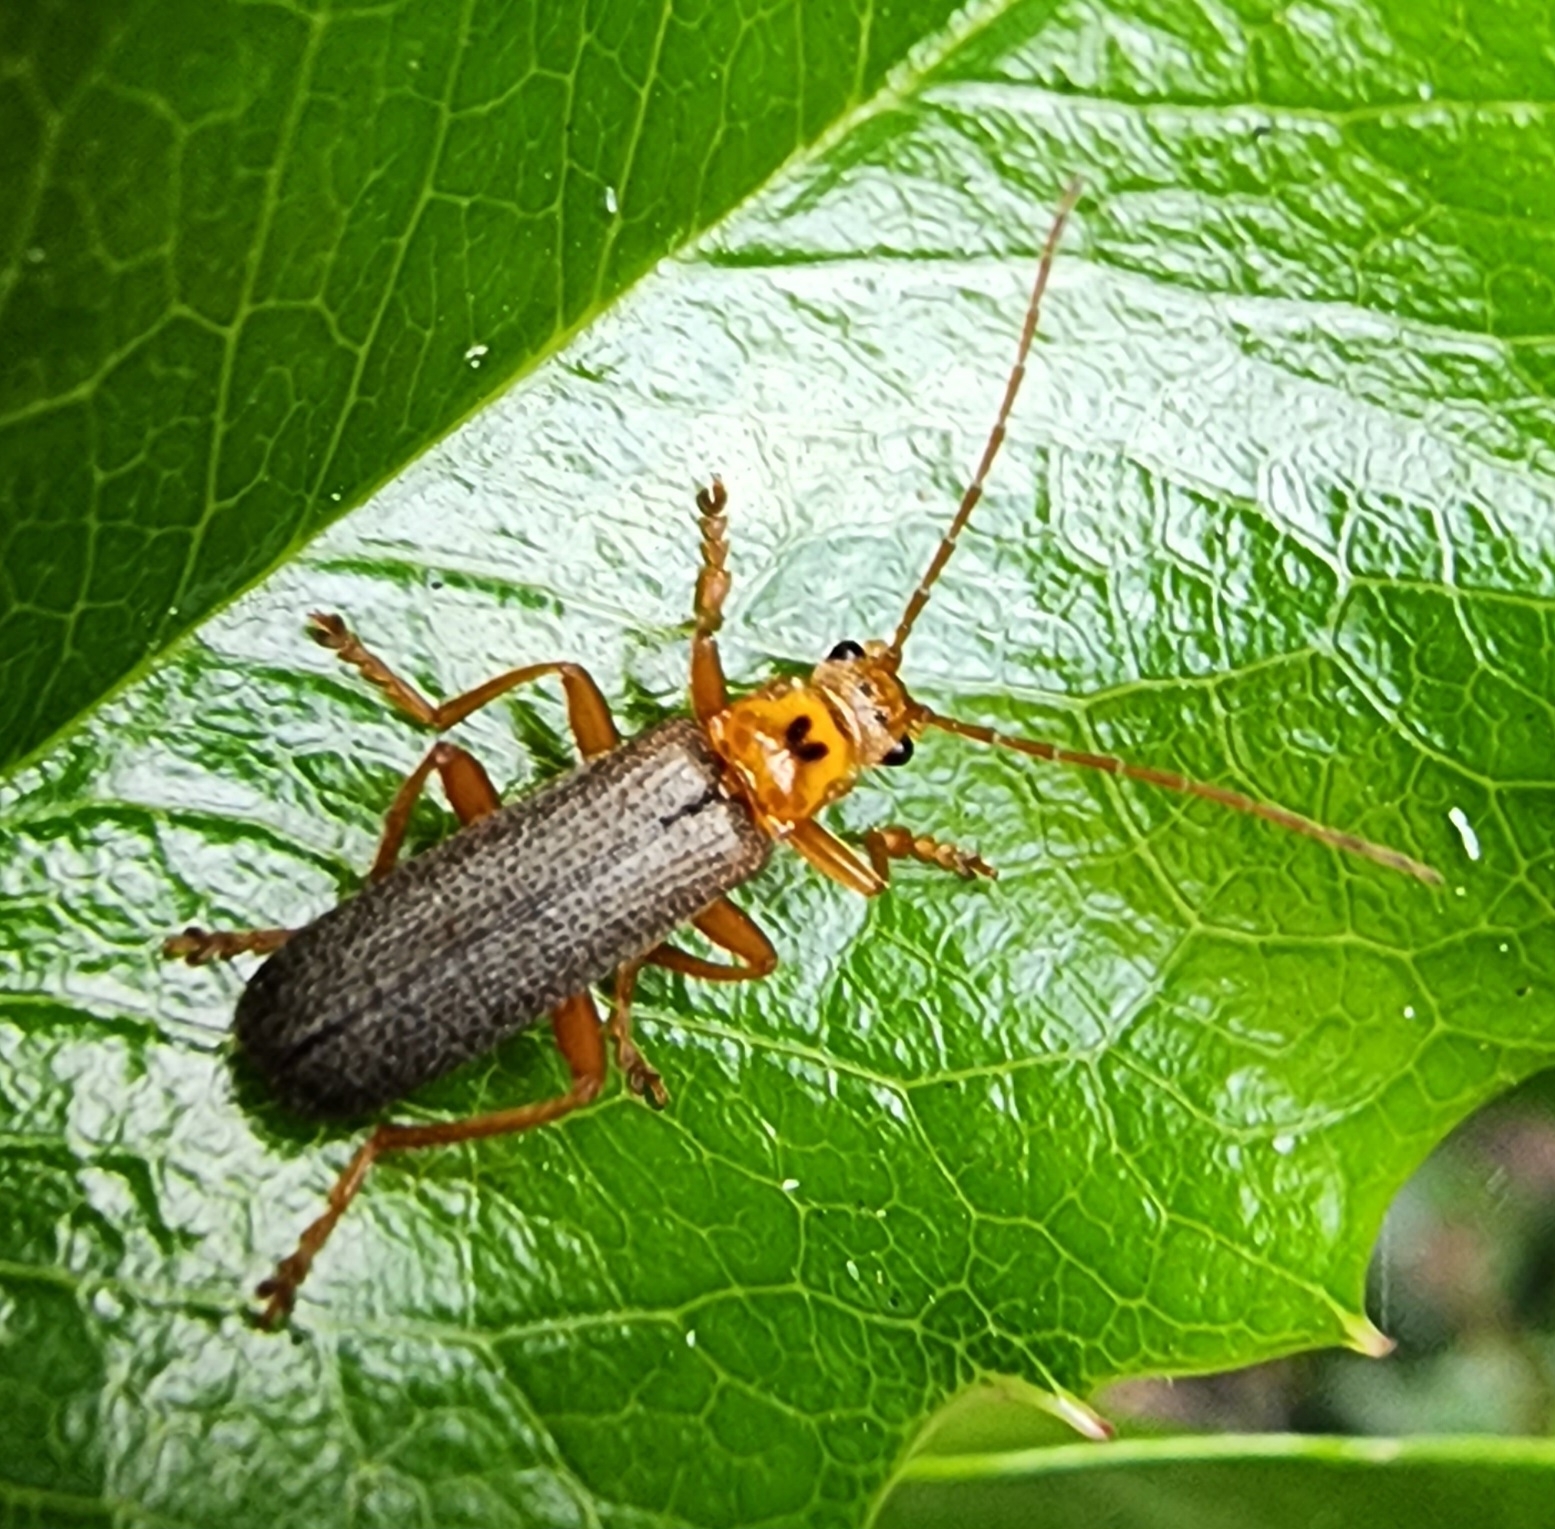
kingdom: Animalia
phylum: Arthropoda
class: Insecta
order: Coleoptera
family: Cantharidae
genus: Cultellunguis
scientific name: Cultellunguis americanus
